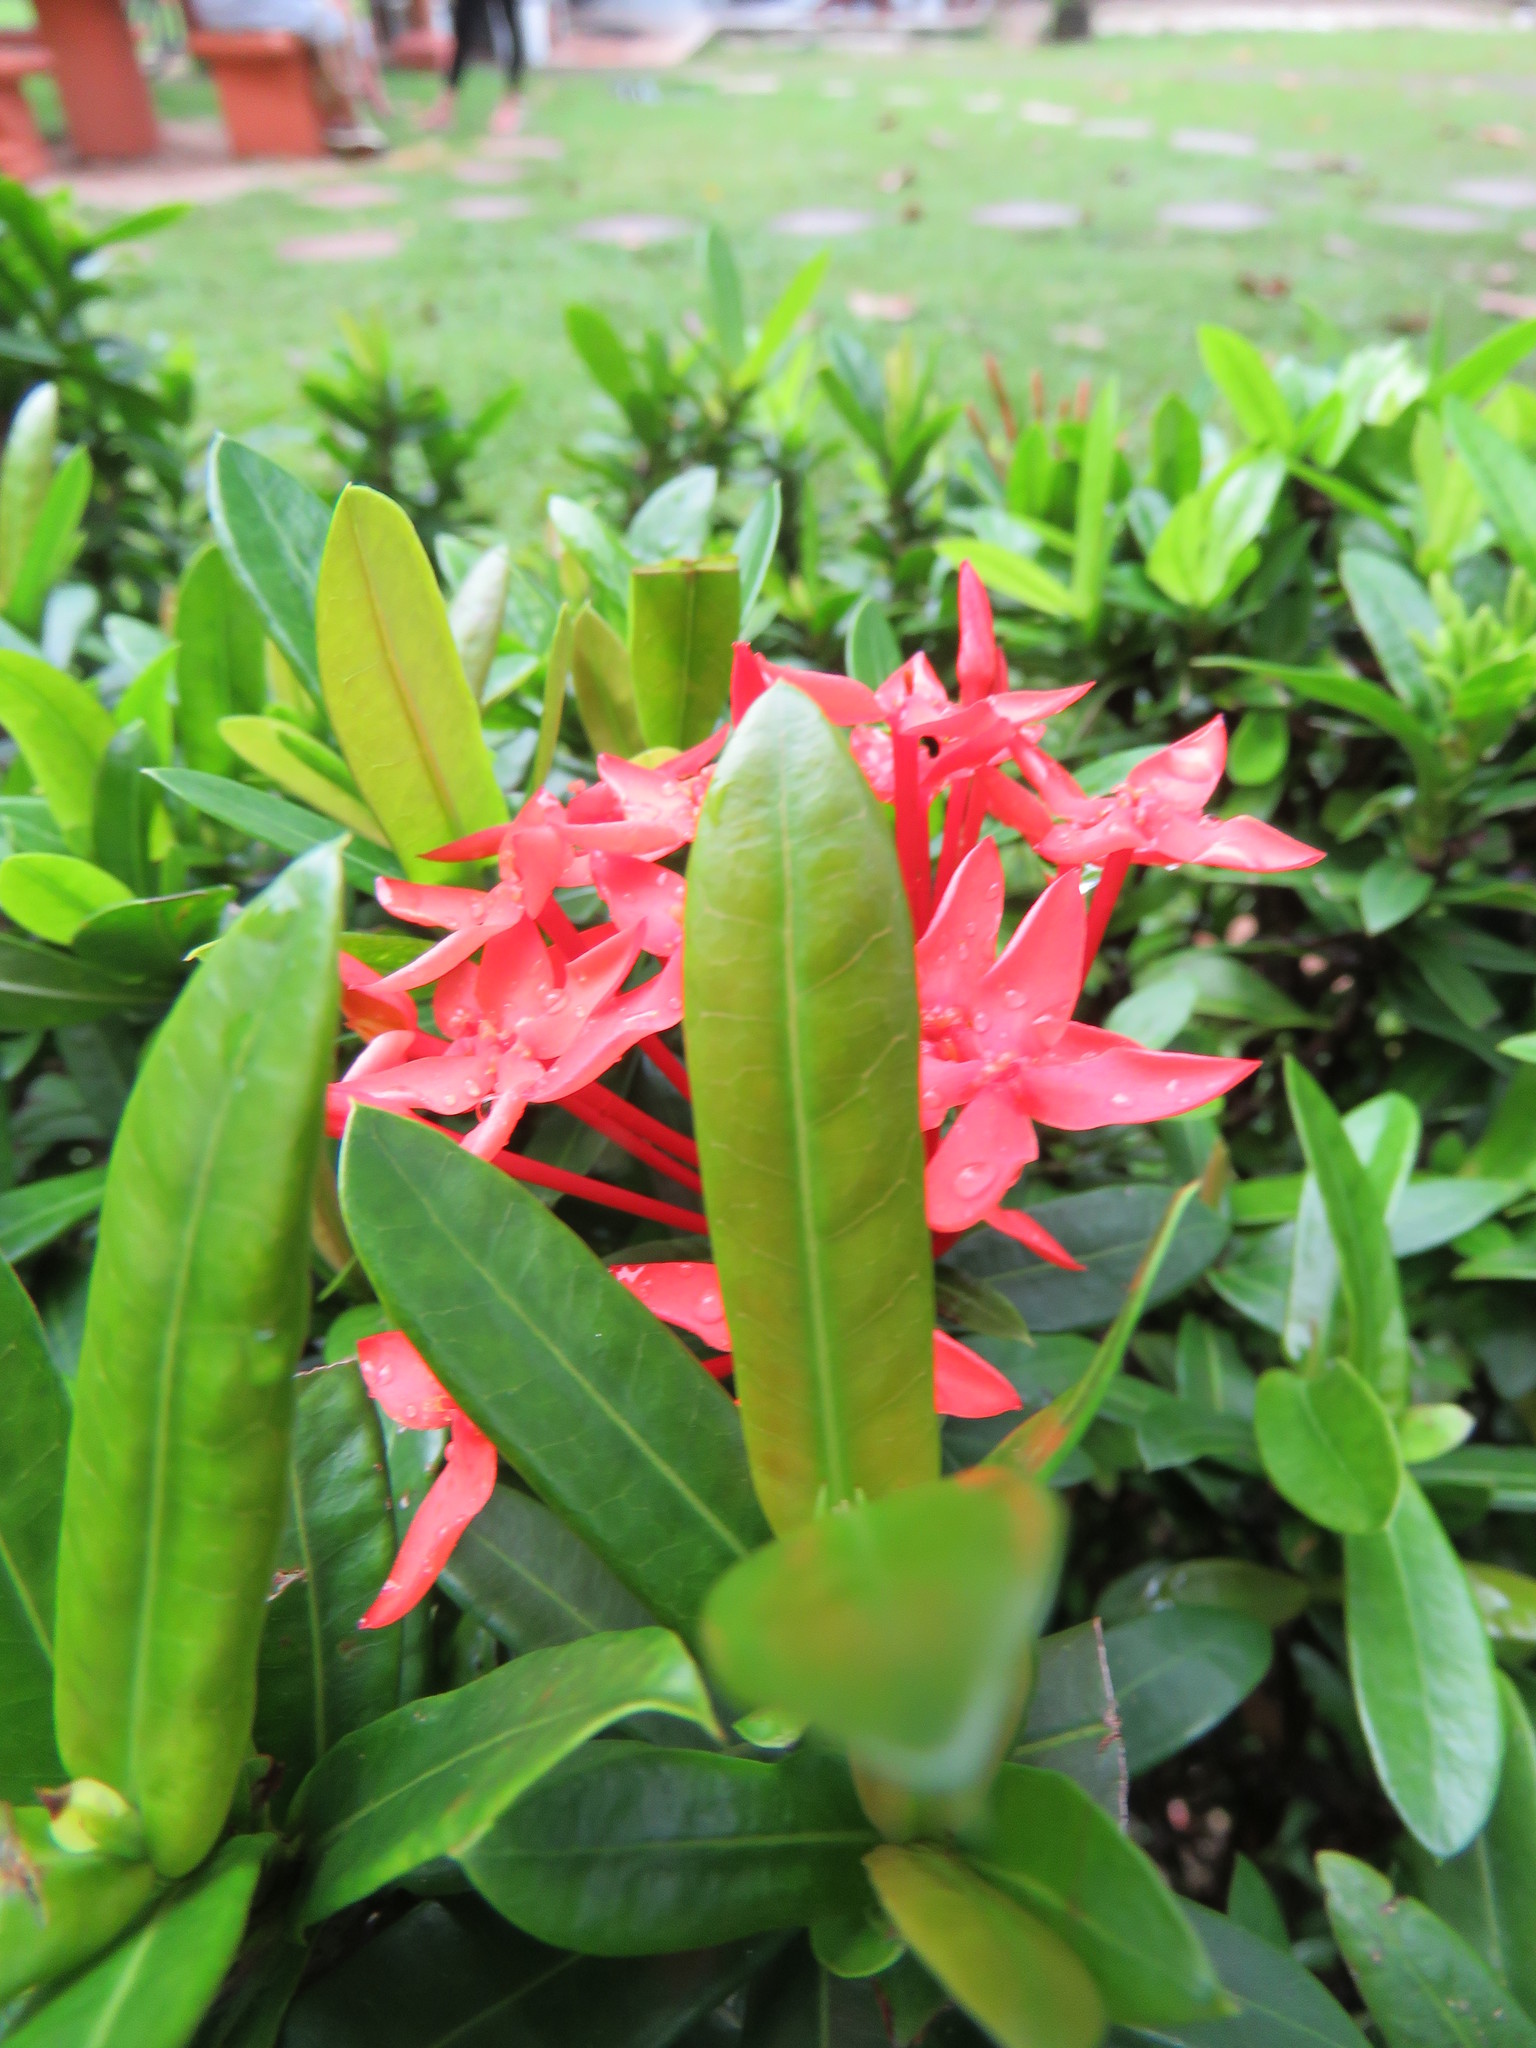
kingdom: Plantae
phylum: Tracheophyta
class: Magnoliopsida
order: Gentianales
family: Rubiaceae
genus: Ixora
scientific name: Ixora coccinea
